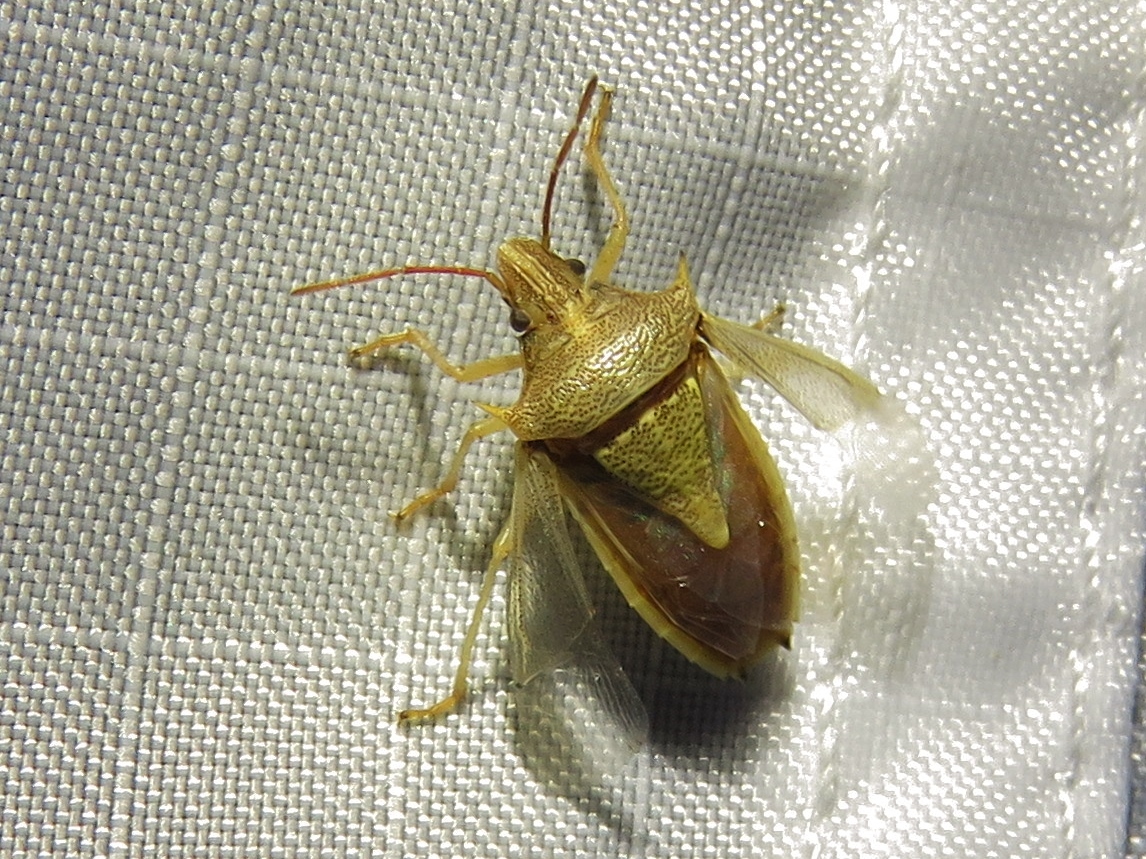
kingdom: Animalia
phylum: Arthropoda
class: Insecta
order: Hemiptera
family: Pentatomidae
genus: Oebalus
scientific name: Oebalus pugnax
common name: Rice stink bug
